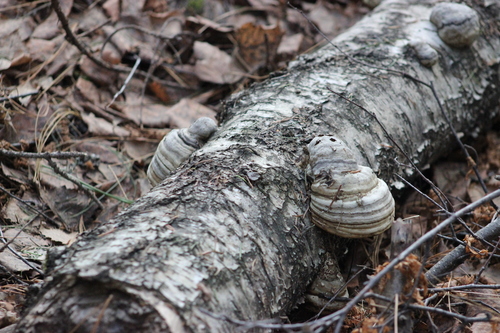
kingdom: Fungi
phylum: Basidiomycota
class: Agaricomycetes
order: Polyporales
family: Polyporaceae
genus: Fomes
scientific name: Fomes fomentarius
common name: Hoof fungus
